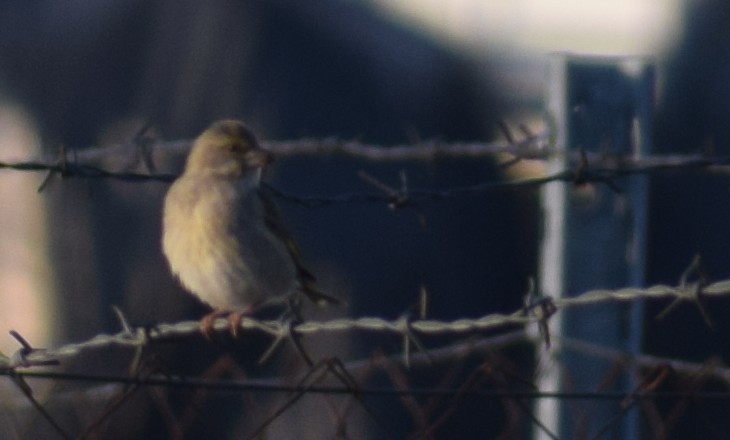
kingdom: Animalia
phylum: Chordata
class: Aves
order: Passeriformes
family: Fringillidae
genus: Linaria
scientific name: Linaria cannabina
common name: Common linnet
